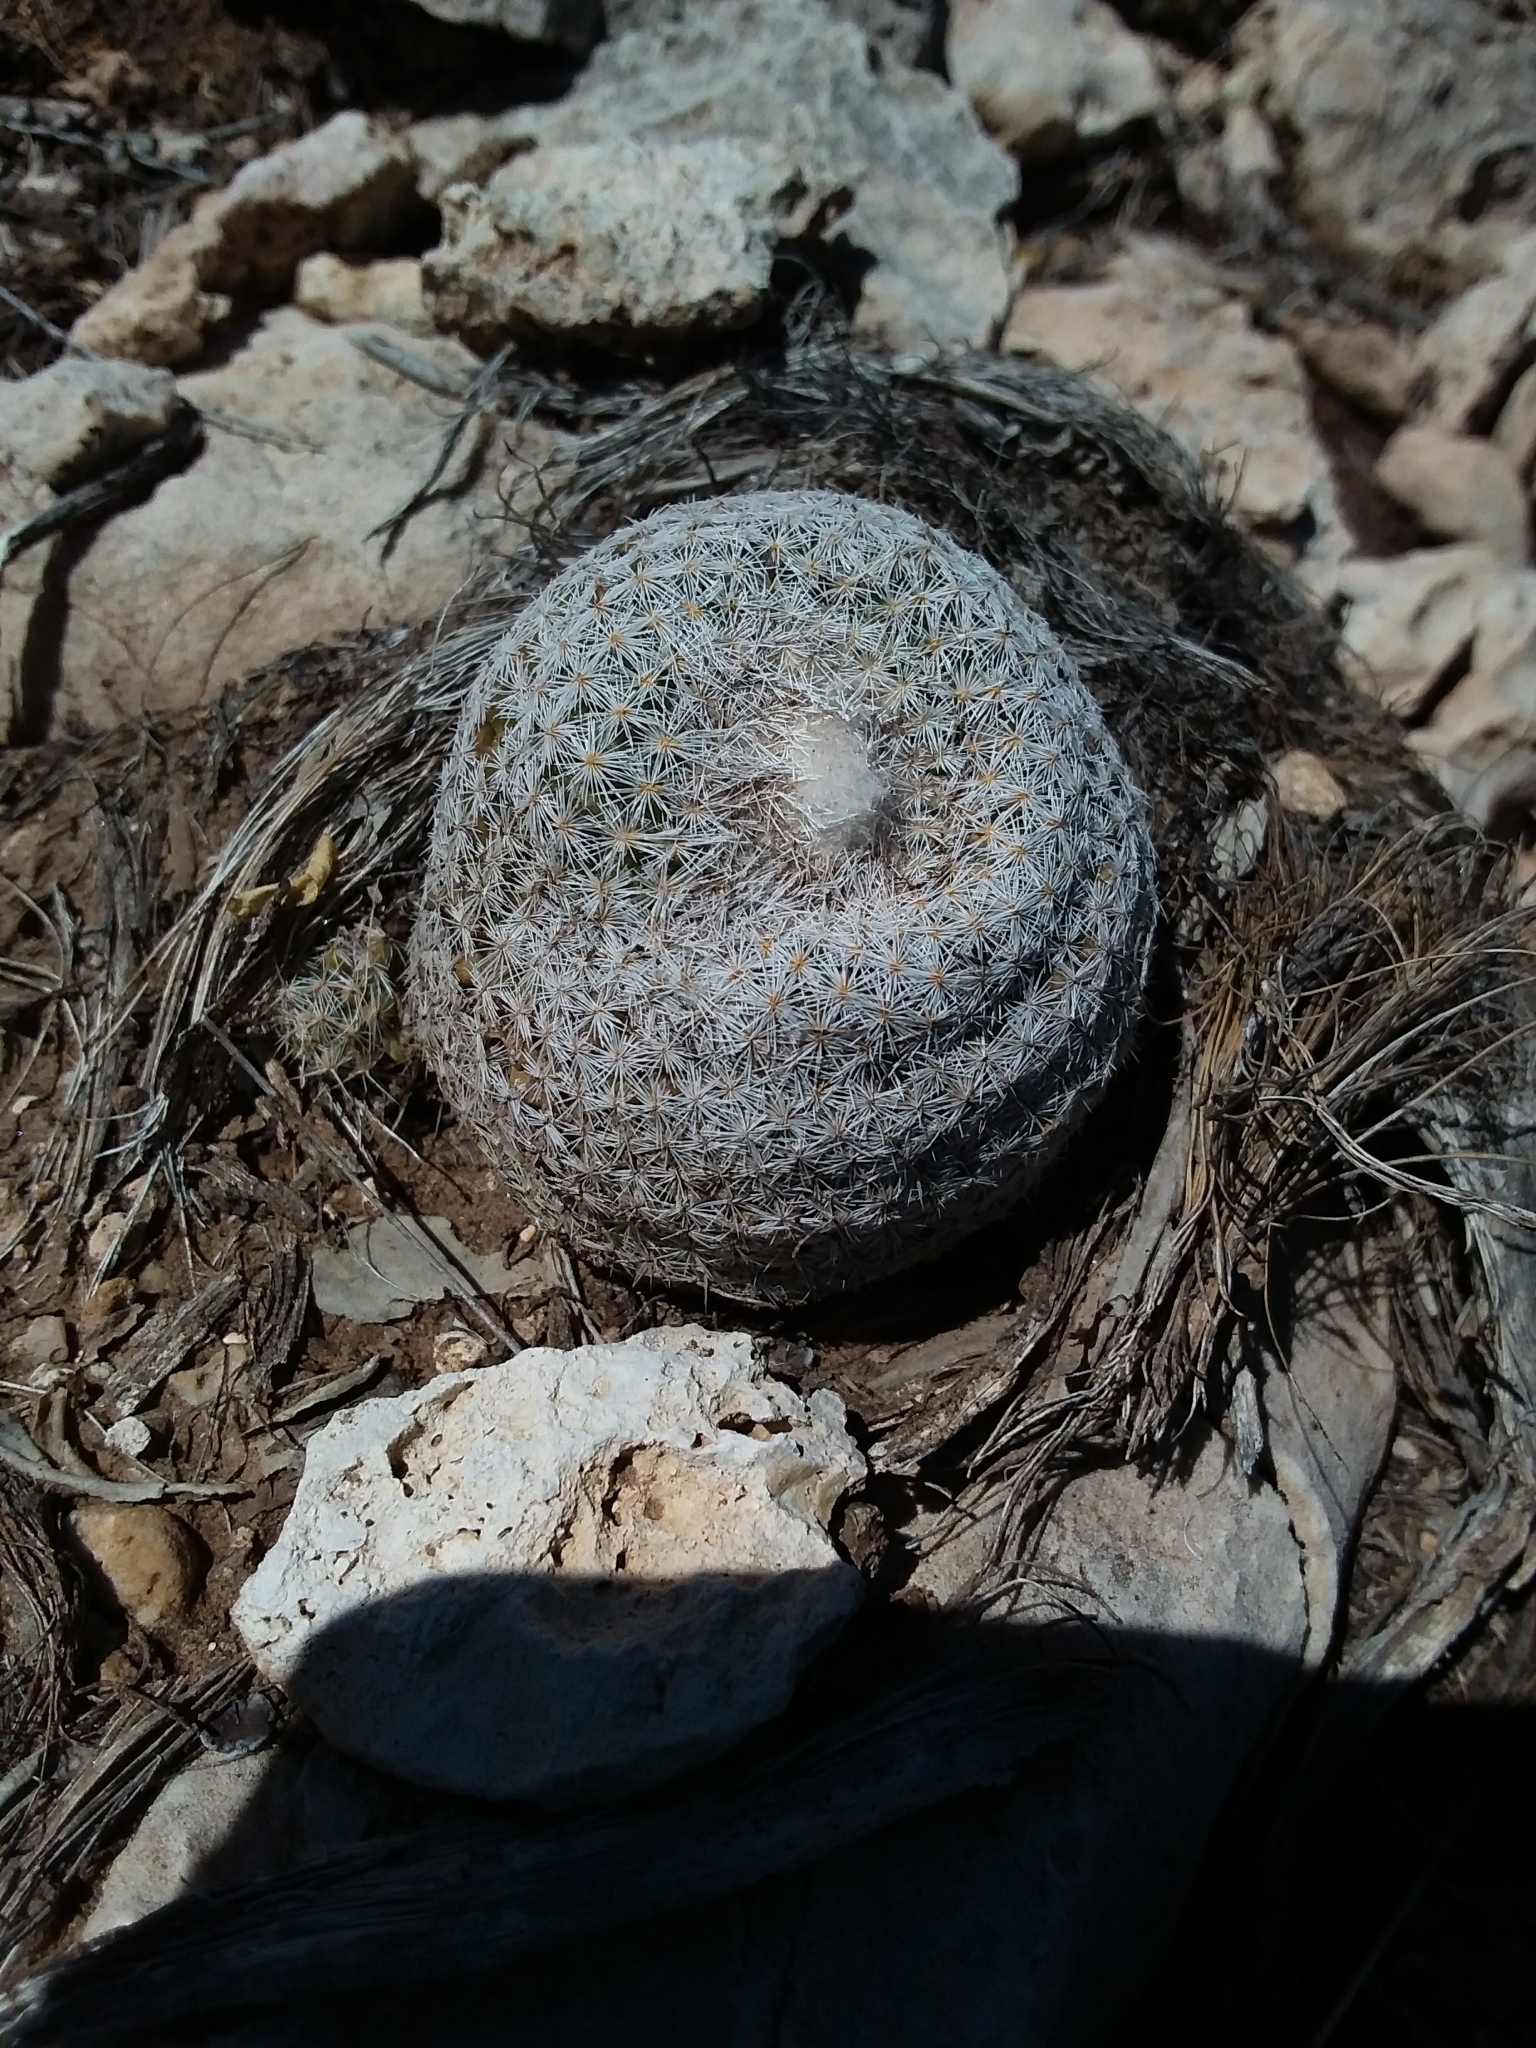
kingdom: Plantae
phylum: Tracheophyta
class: Magnoliopsida
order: Caryophyllales
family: Cactaceae
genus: Epithelantha
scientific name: Epithelantha micromeris
